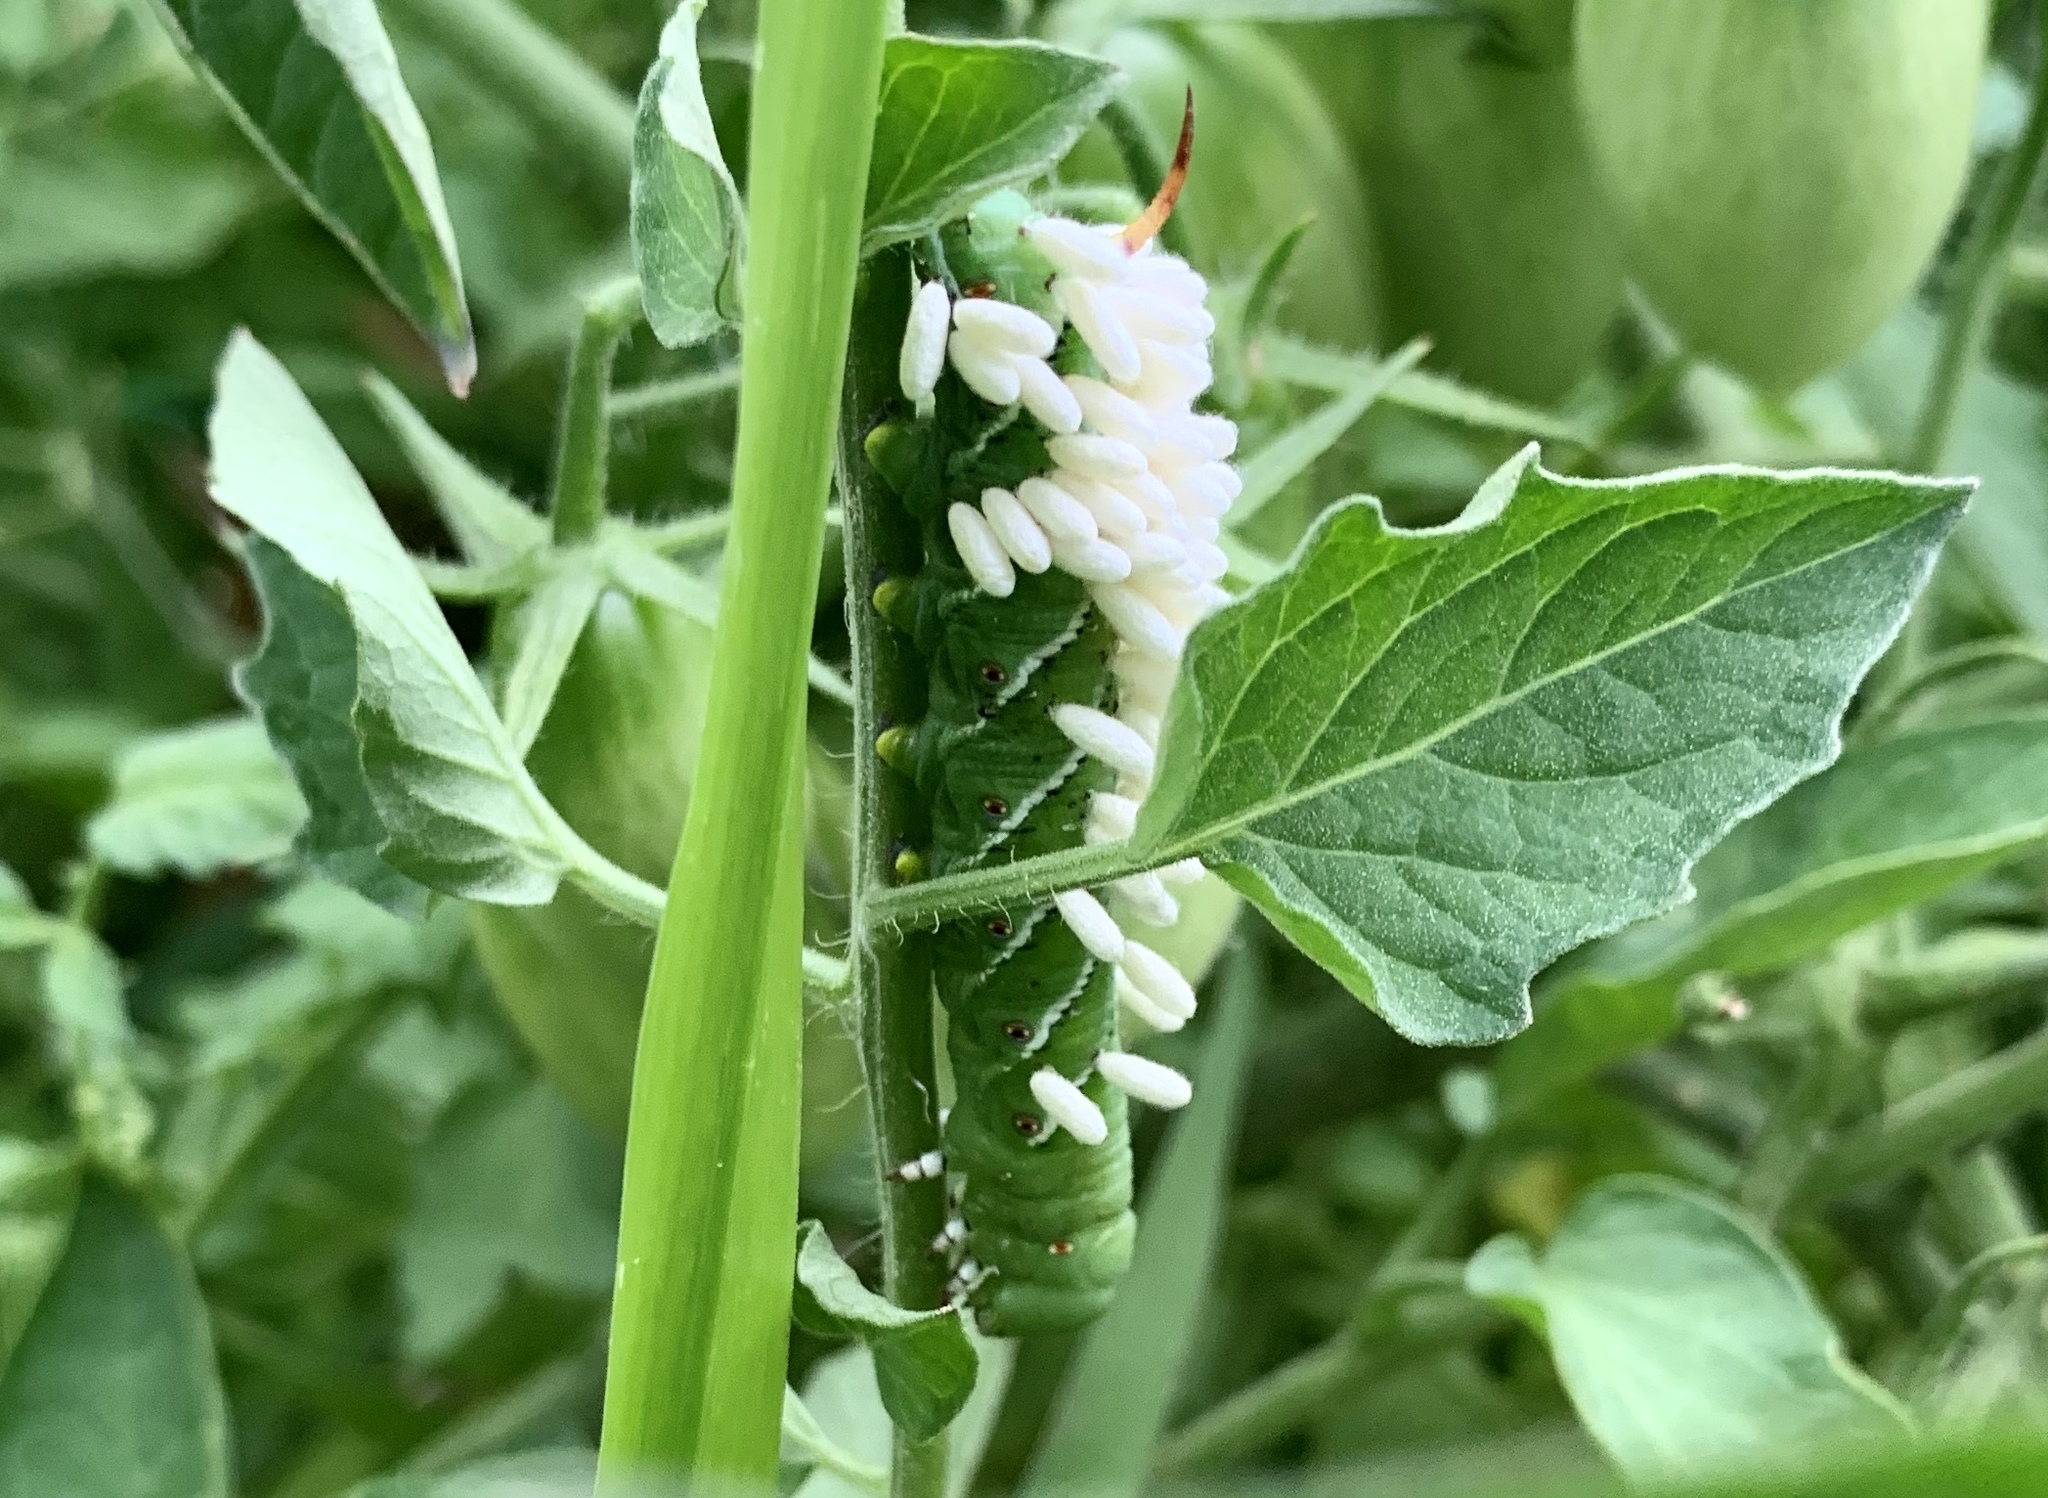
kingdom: Animalia
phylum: Arthropoda
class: Insecta
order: Lepidoptera
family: Sphingidae
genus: Manduca
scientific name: Manduca sexta
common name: Carolina sphinx
